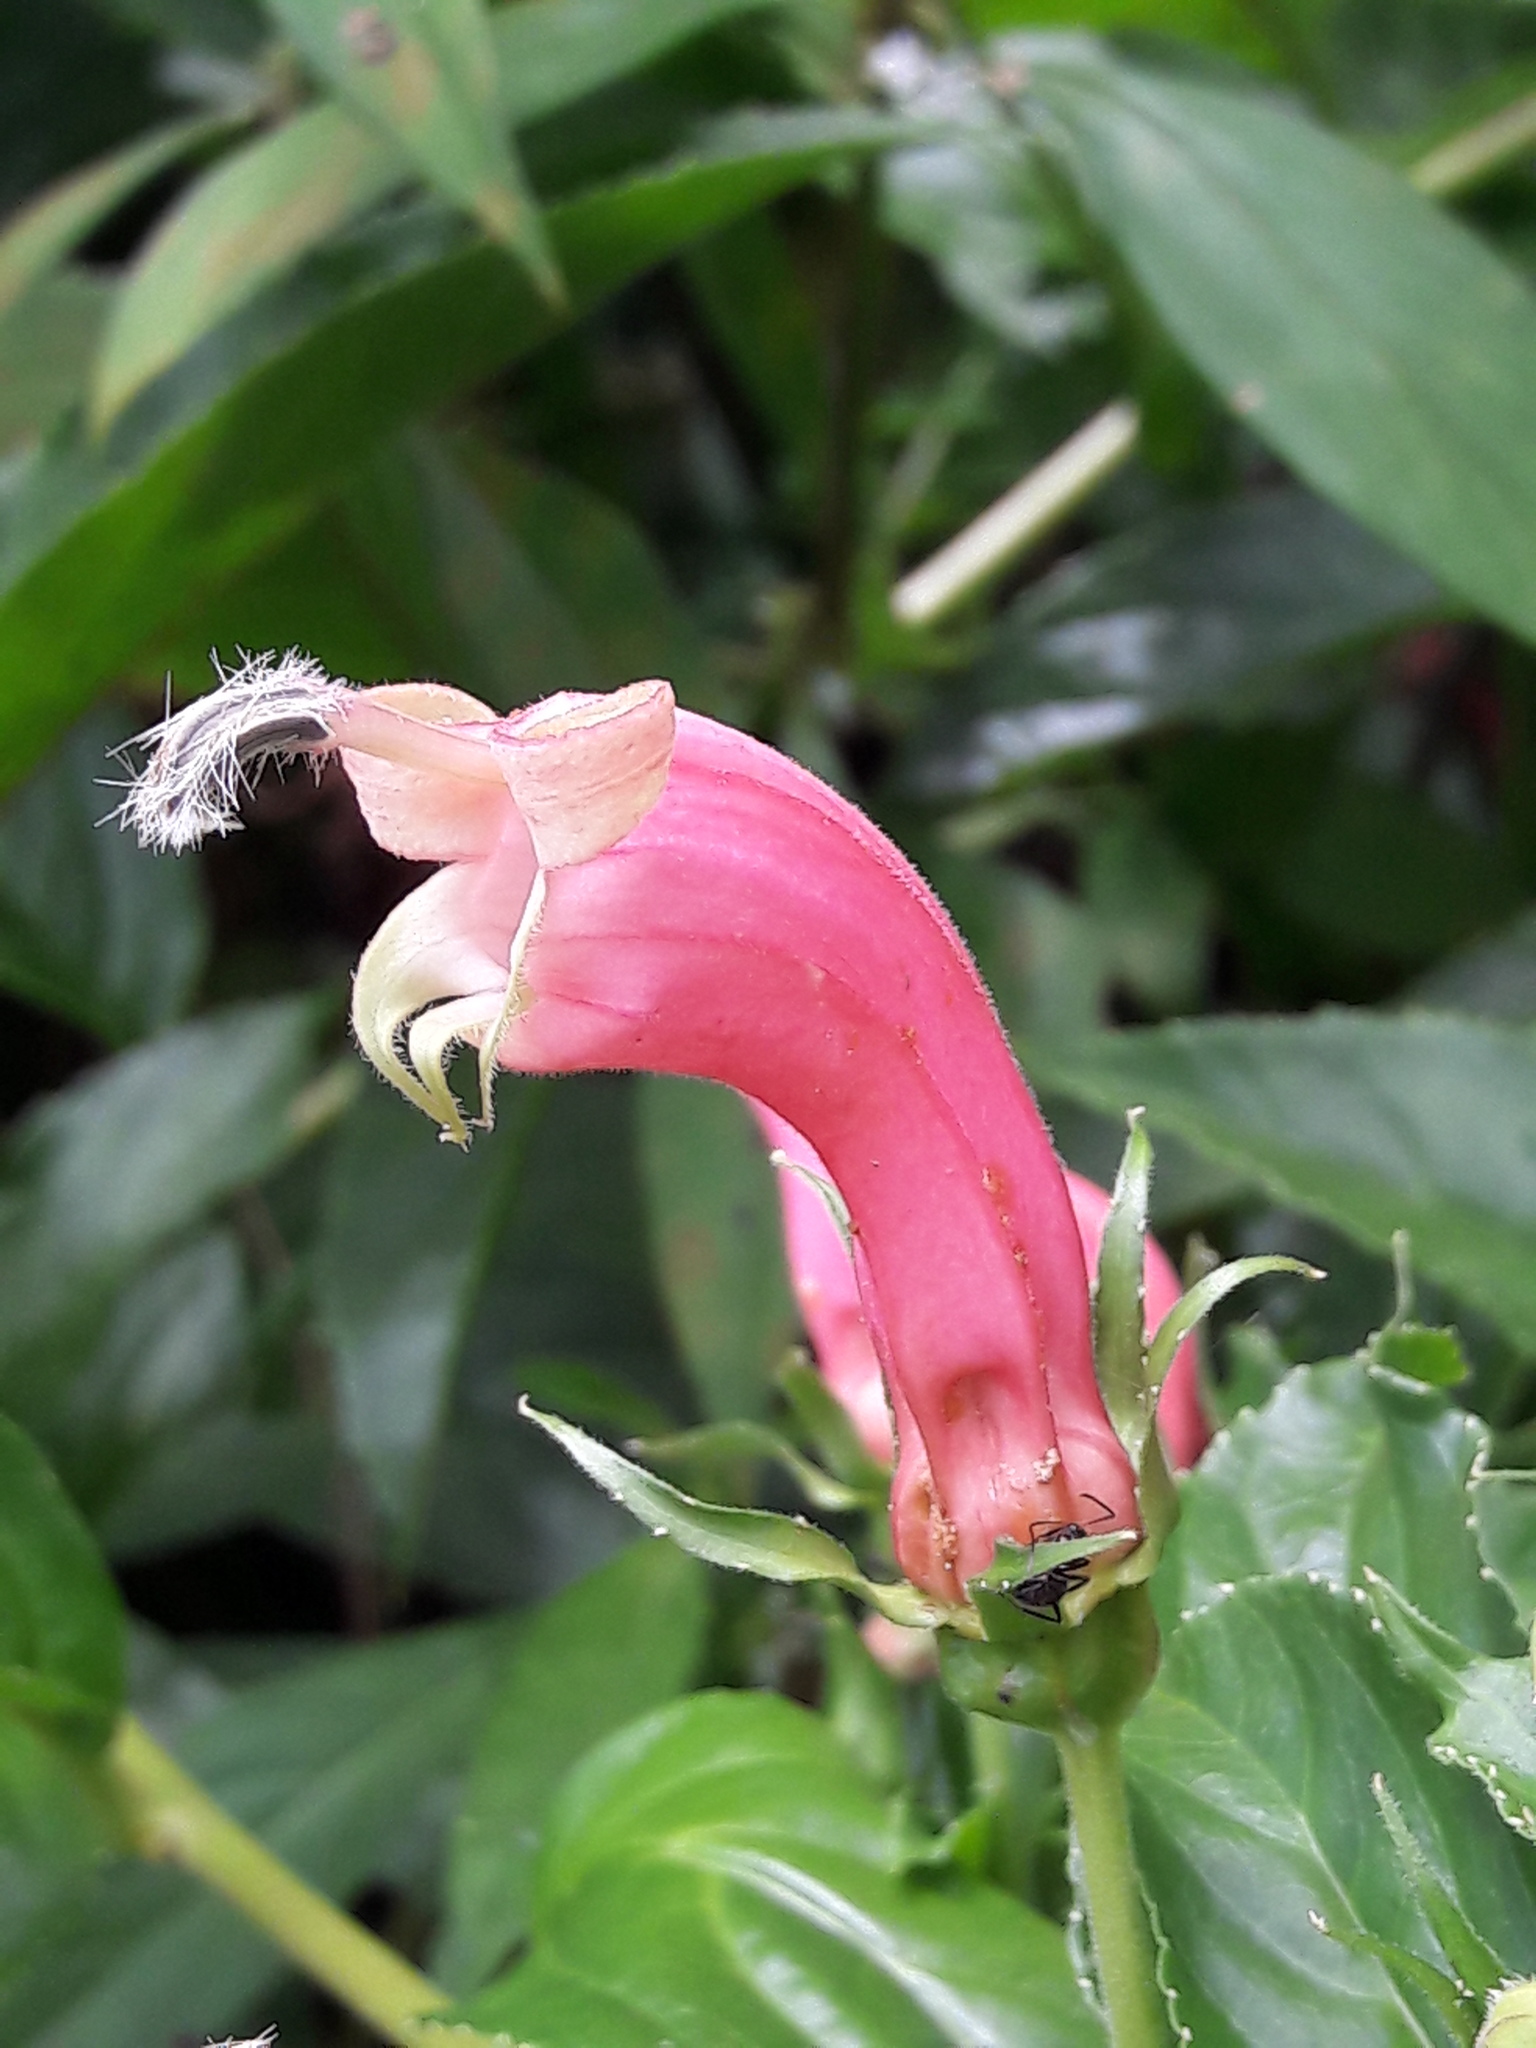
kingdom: Plantae
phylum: Tracheophyta
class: Magnoliopsida
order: Asterales
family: Campanulaceae
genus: Centropogon
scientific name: Centropogon cornutus
